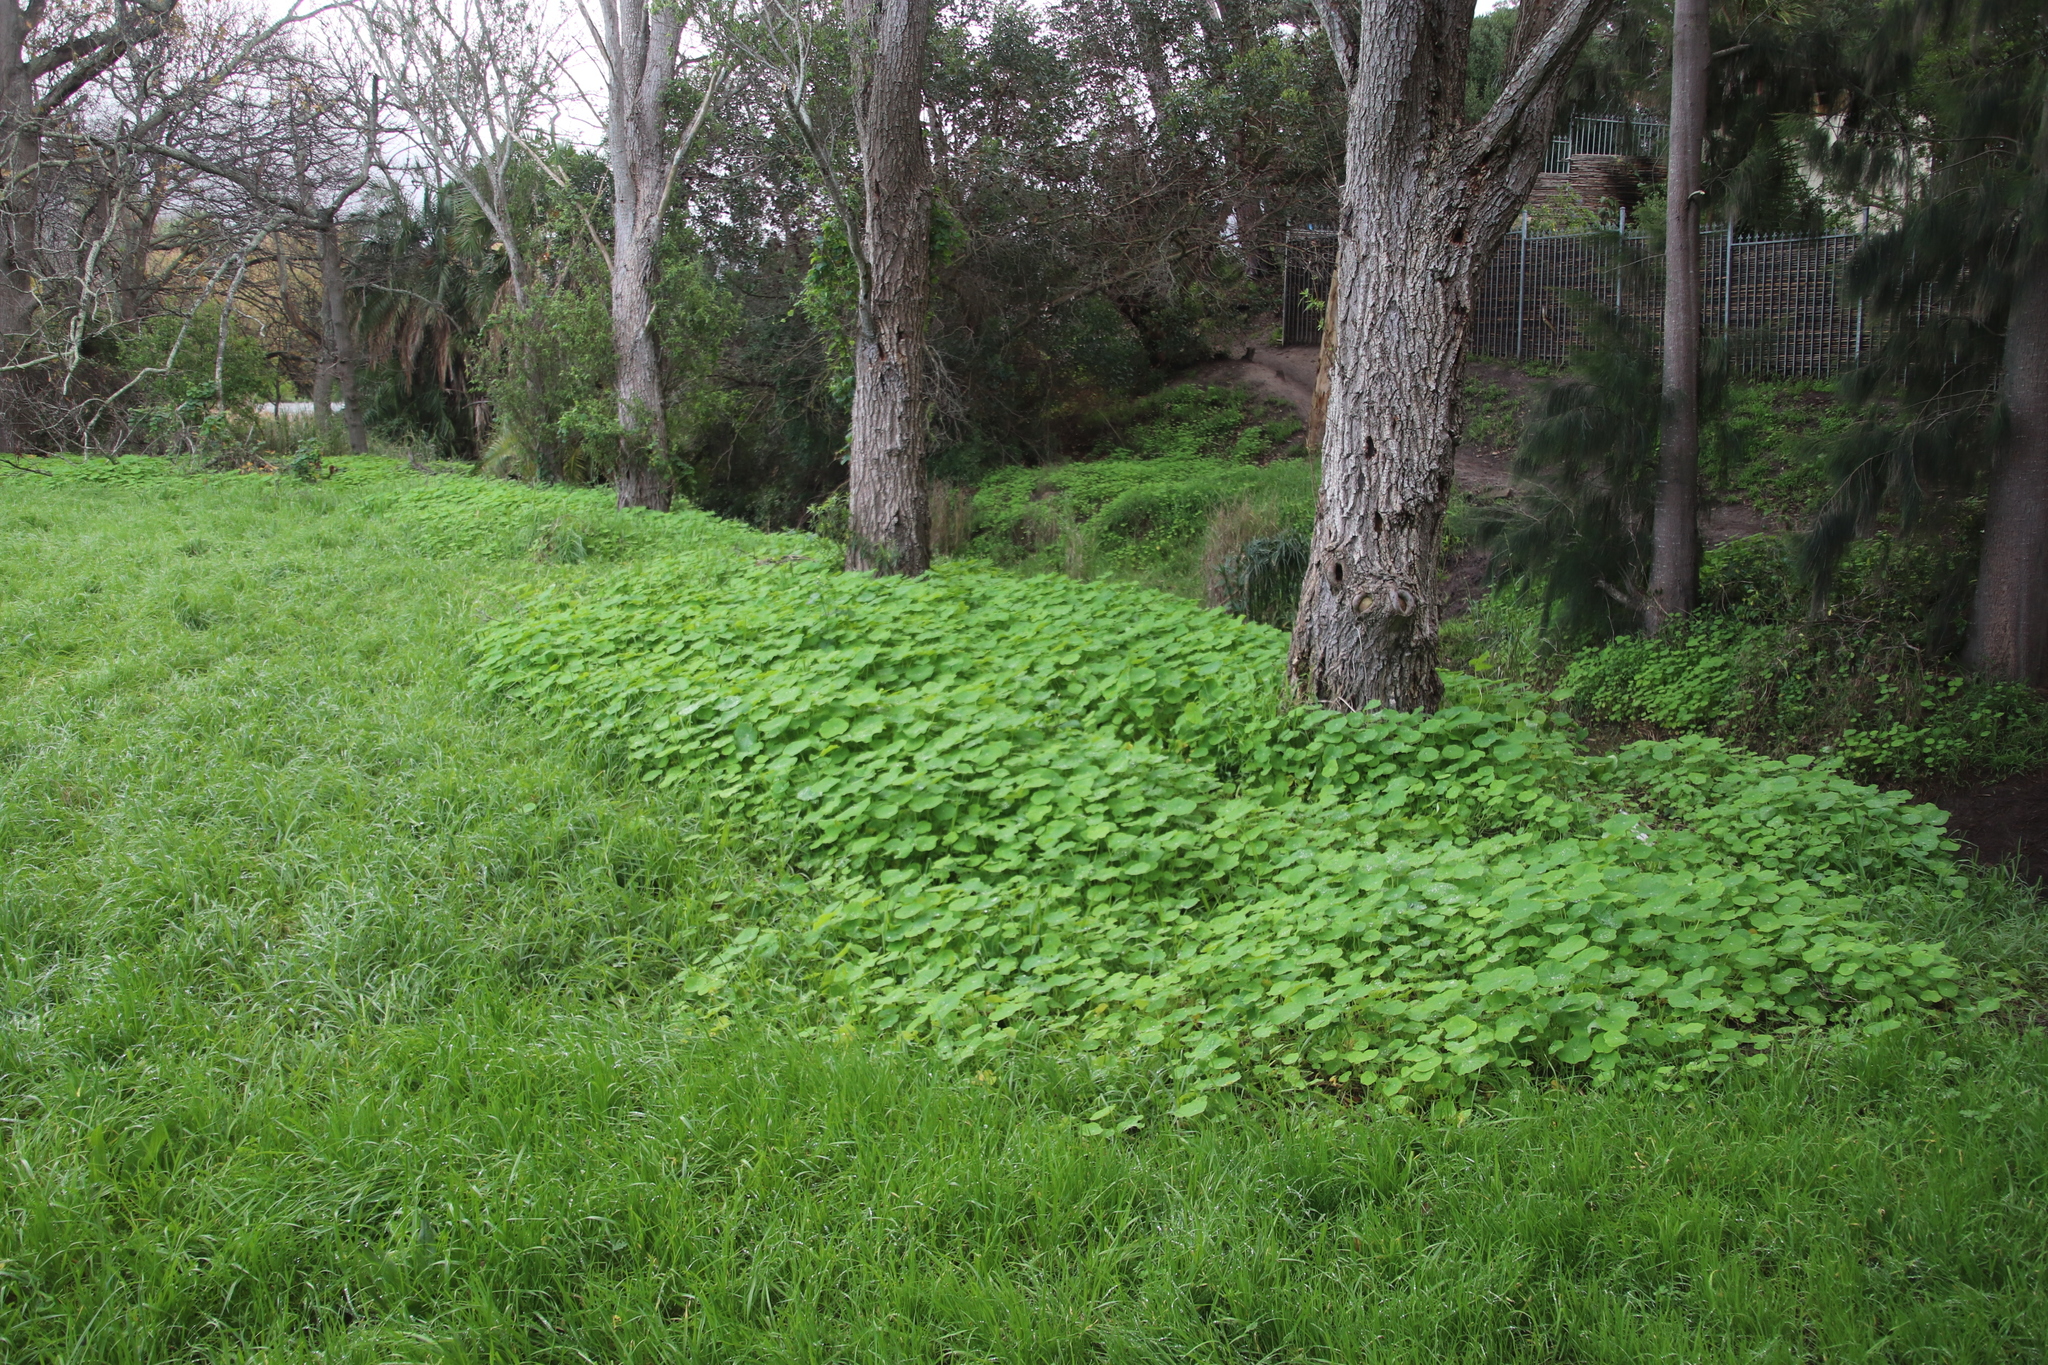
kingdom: Plantae
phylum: Tracheophyta
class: Magnoliopsida
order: Brassicales
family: Tropaeolaceae
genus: Tropaeolum
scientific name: Tropaeolum majus
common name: Nasturtium
